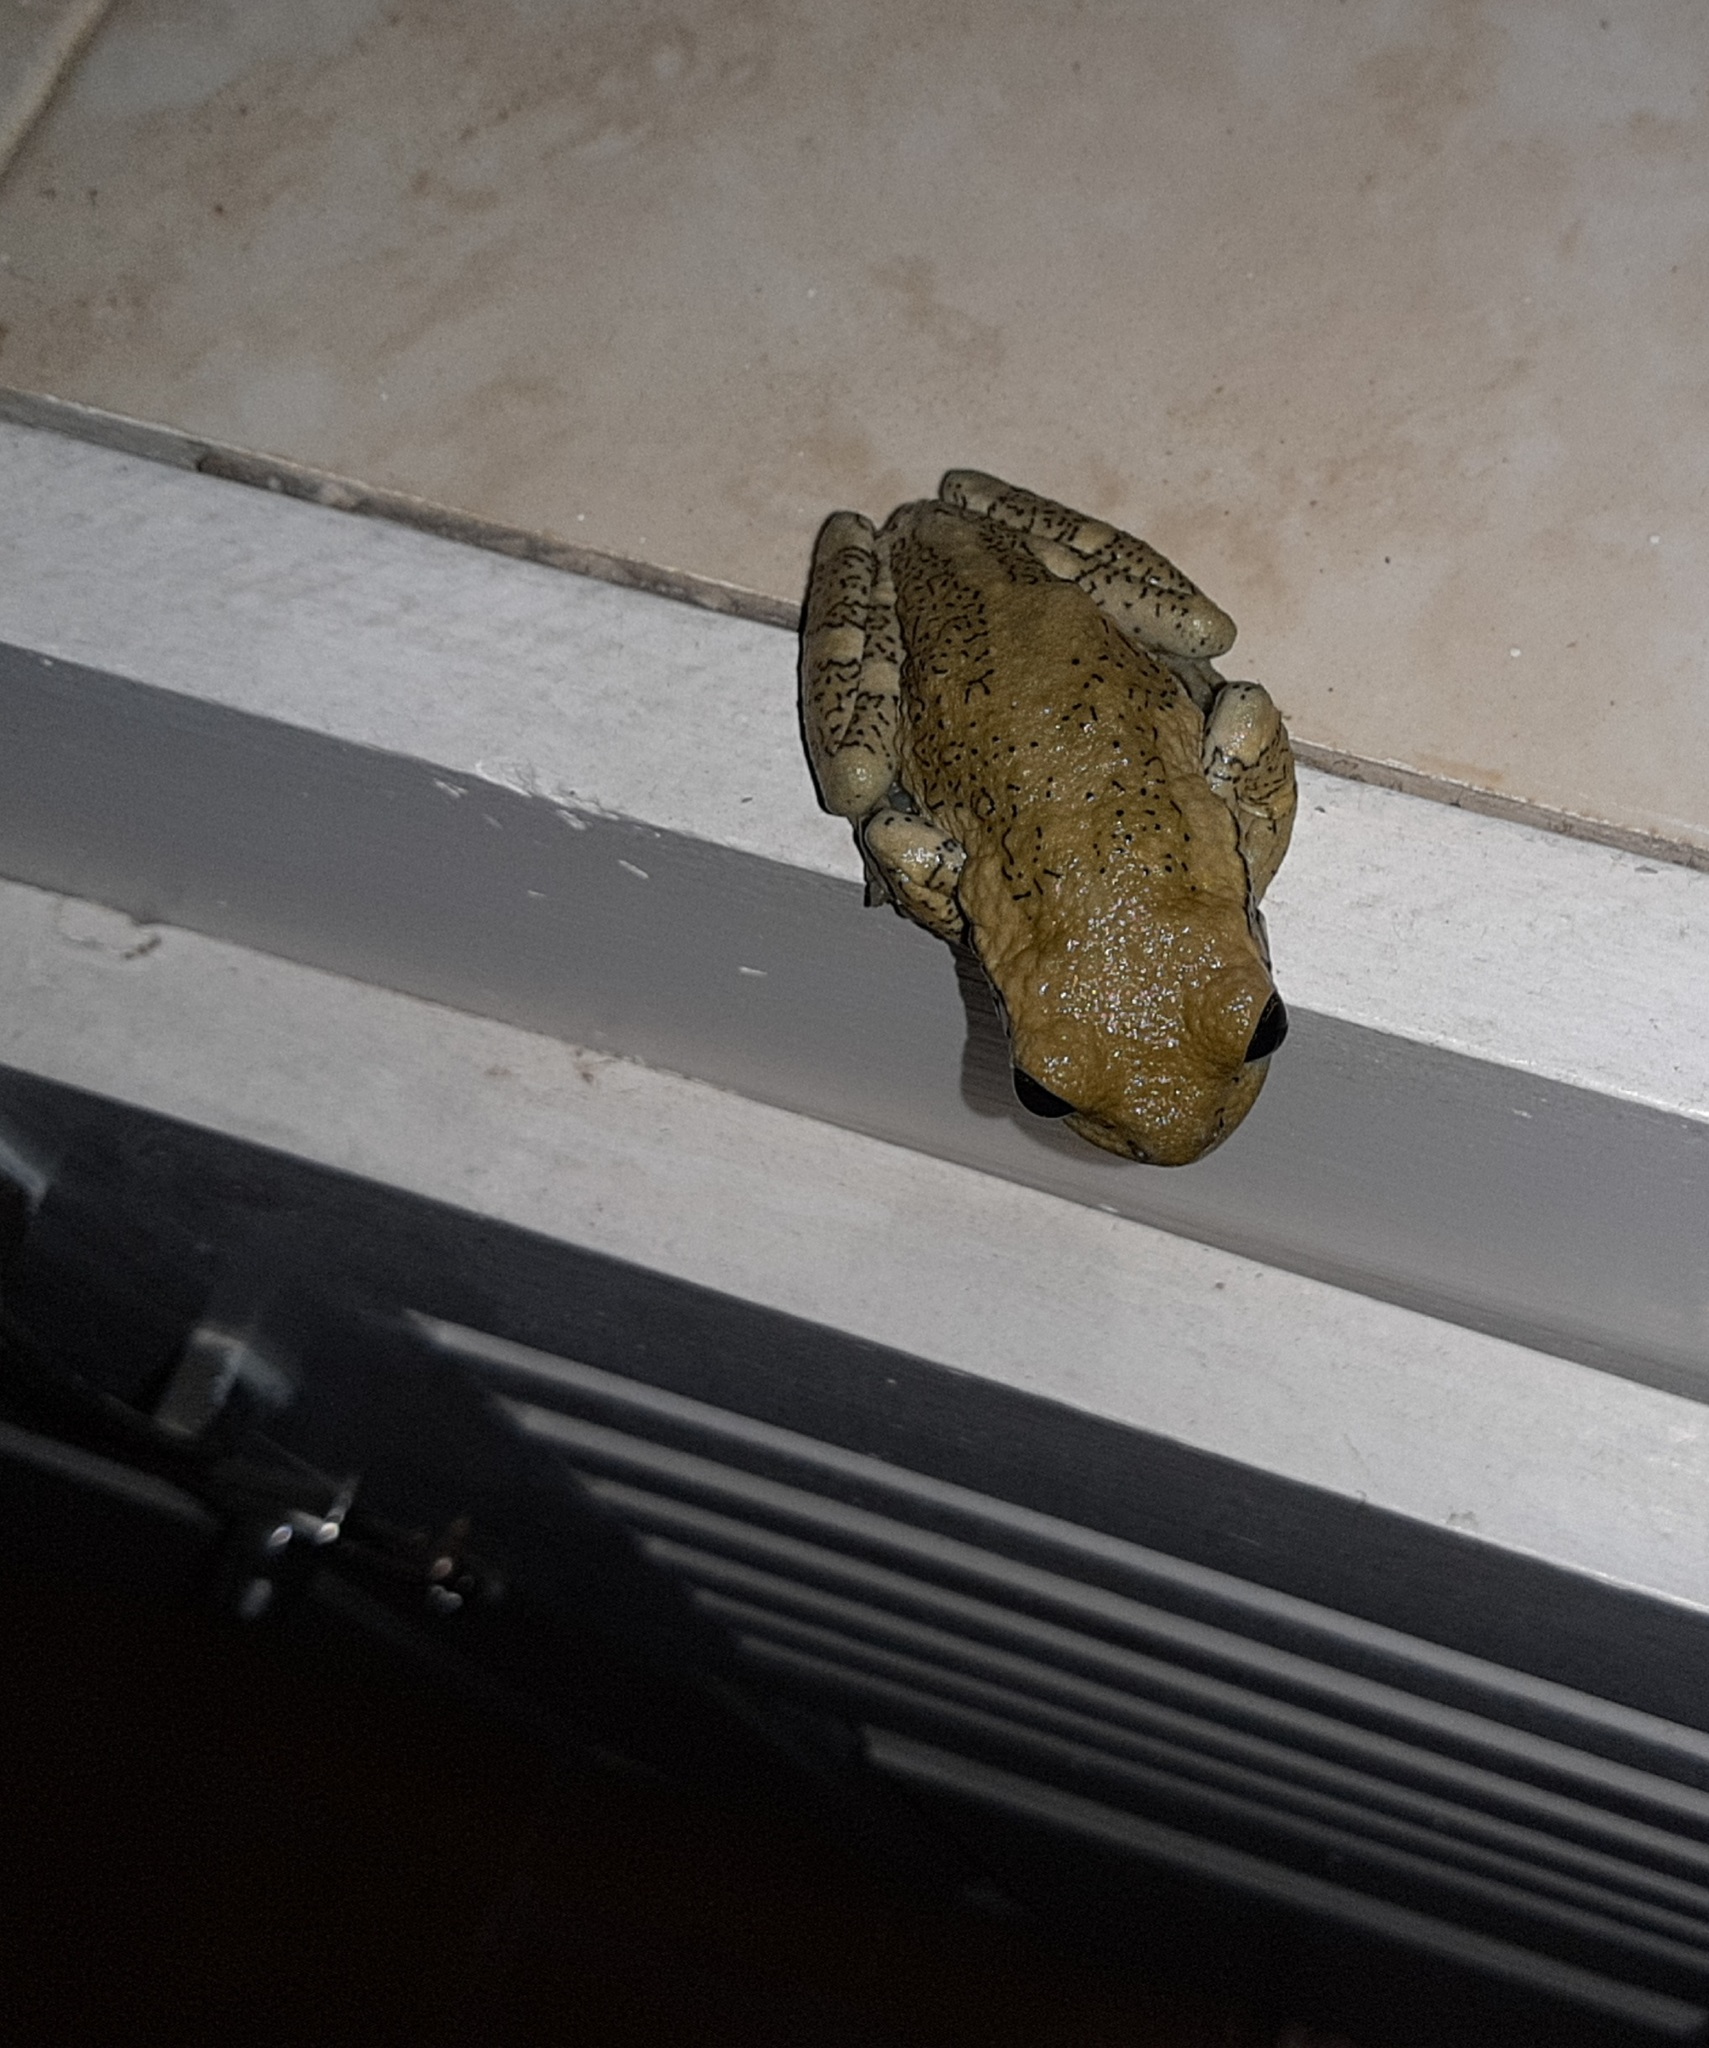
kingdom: Animalia
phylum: Chordata
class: Amphibia
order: Anura
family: Hylidae
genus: Trachycephalus
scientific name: Trachycephalus vermiculatus
